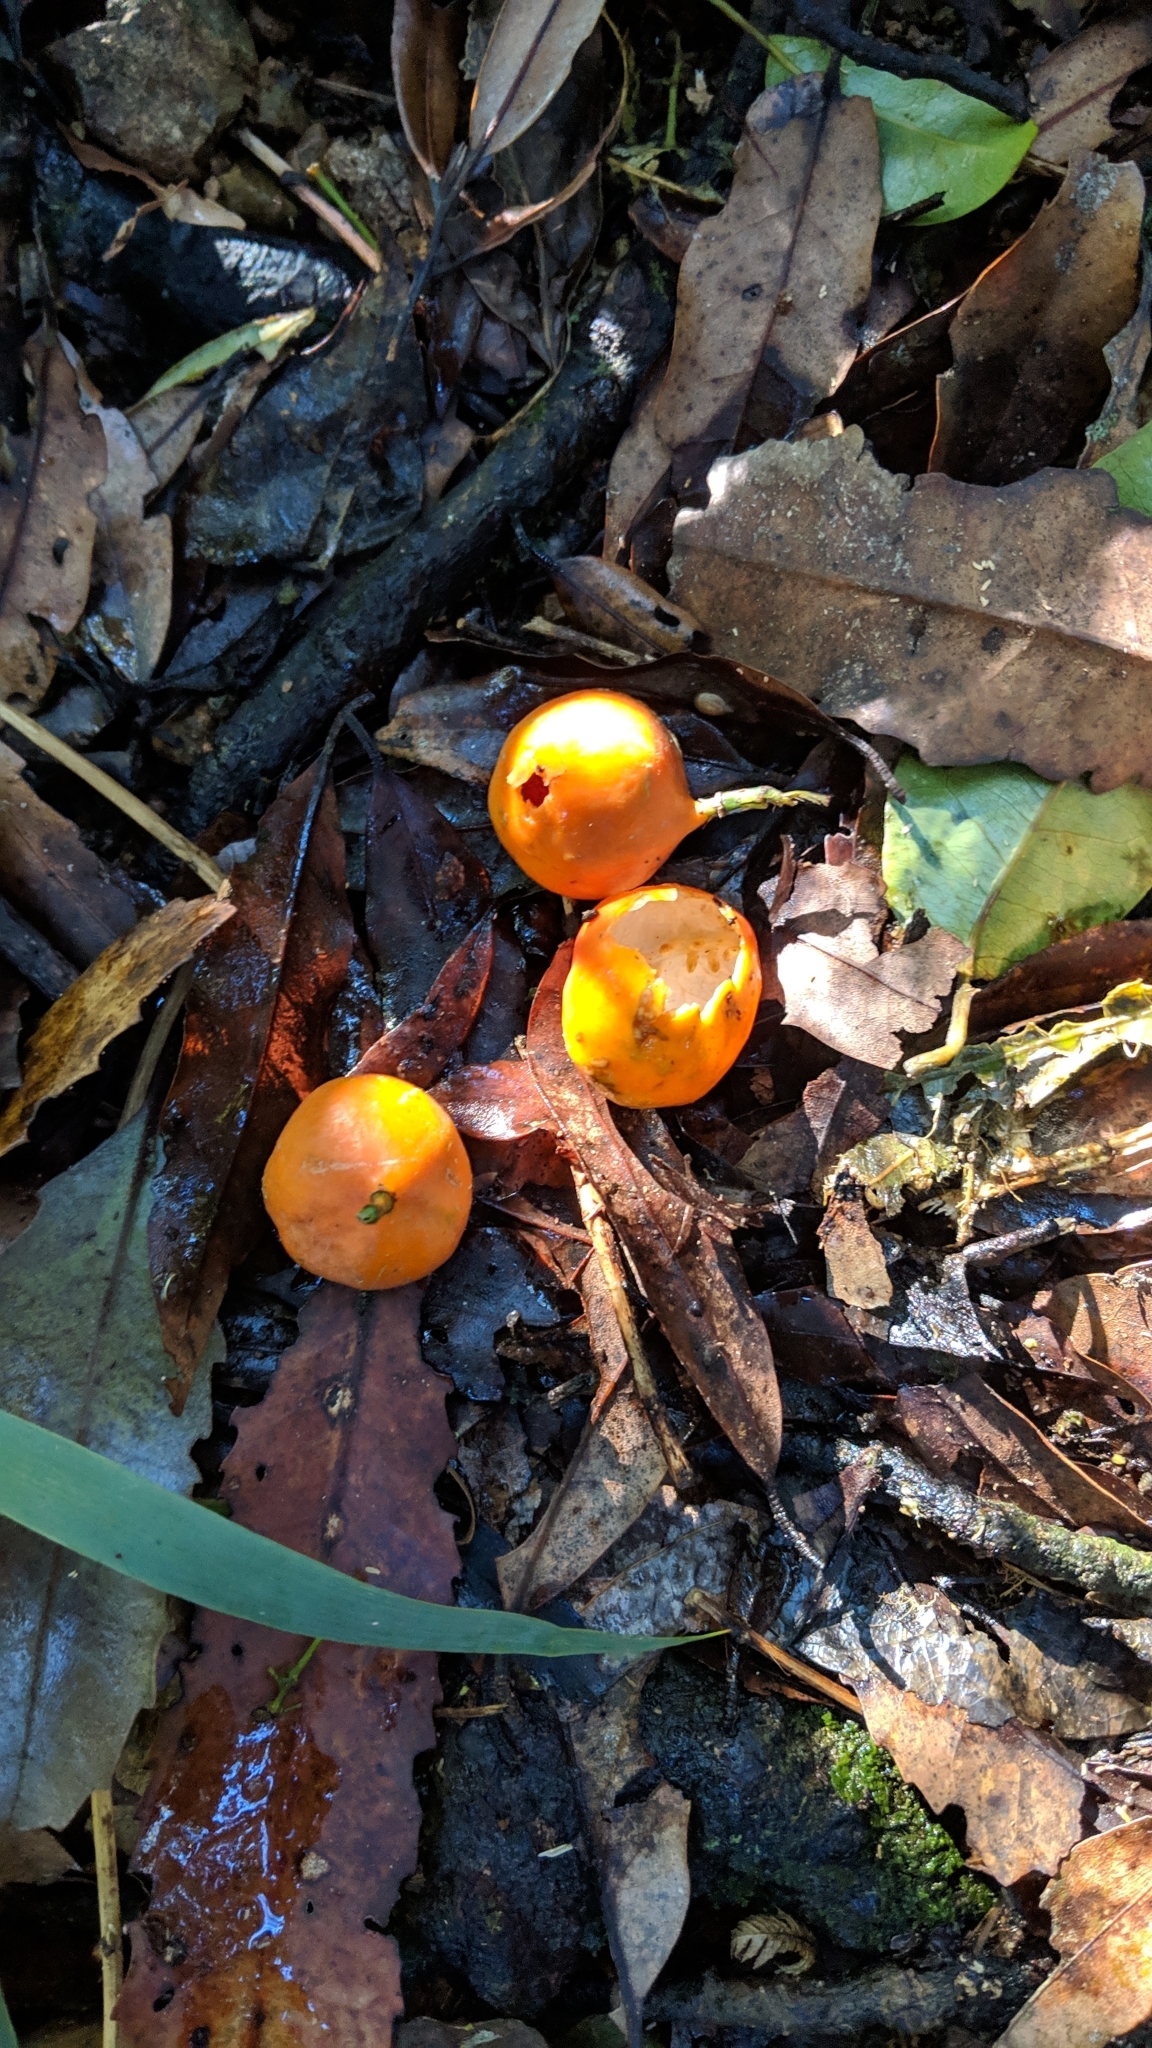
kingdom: Plantae
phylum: Tracheophyta
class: Magnoliopsida
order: Malpighiales
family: Passifloraceae
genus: Passiflora
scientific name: Passiflora tetrandra
